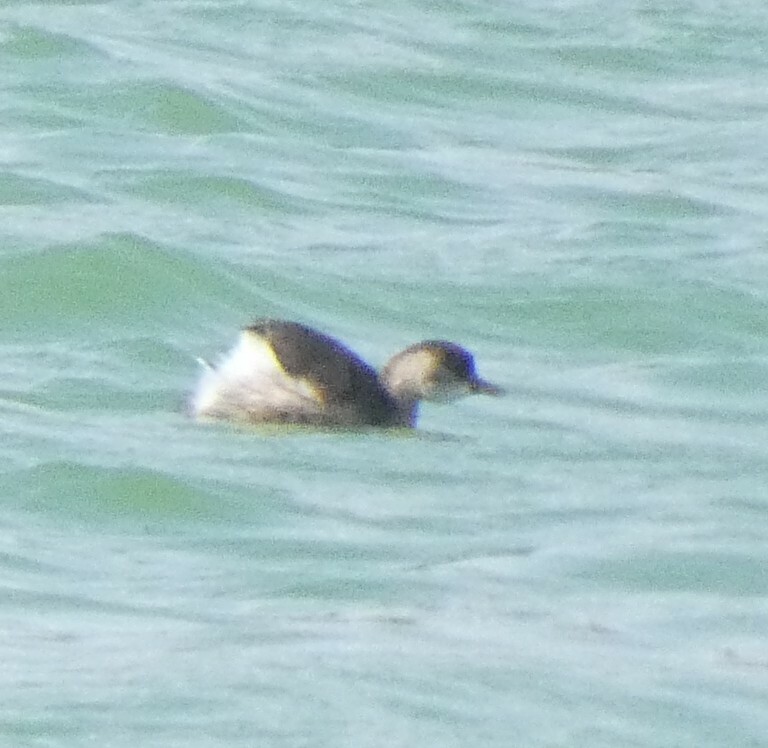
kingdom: Animalia
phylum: Chordata
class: Aves
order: Podicipediformes
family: Podicipedidae
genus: Tachybaptus
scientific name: Tachybaptus ruficollis
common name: Little grebe
